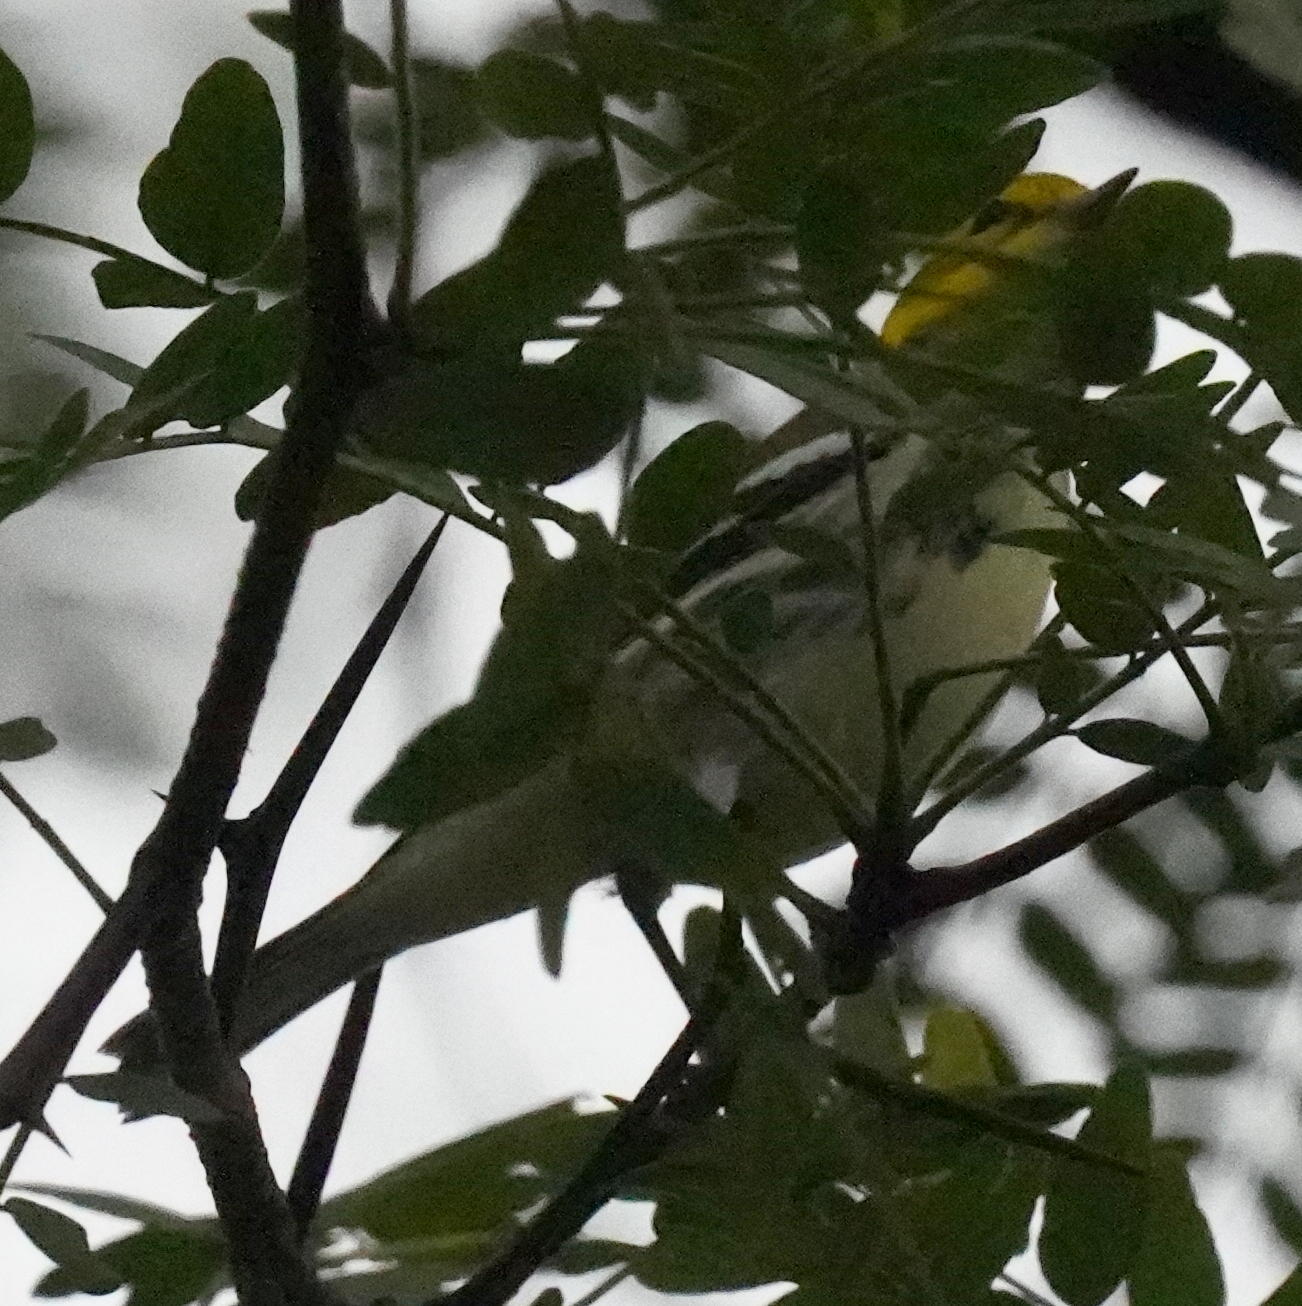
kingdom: Animalia
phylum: Chordata
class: Aves
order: Passeriformes
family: Parulidae
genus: Setophaga
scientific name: Setophaga virens
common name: Black-throated green warbler
